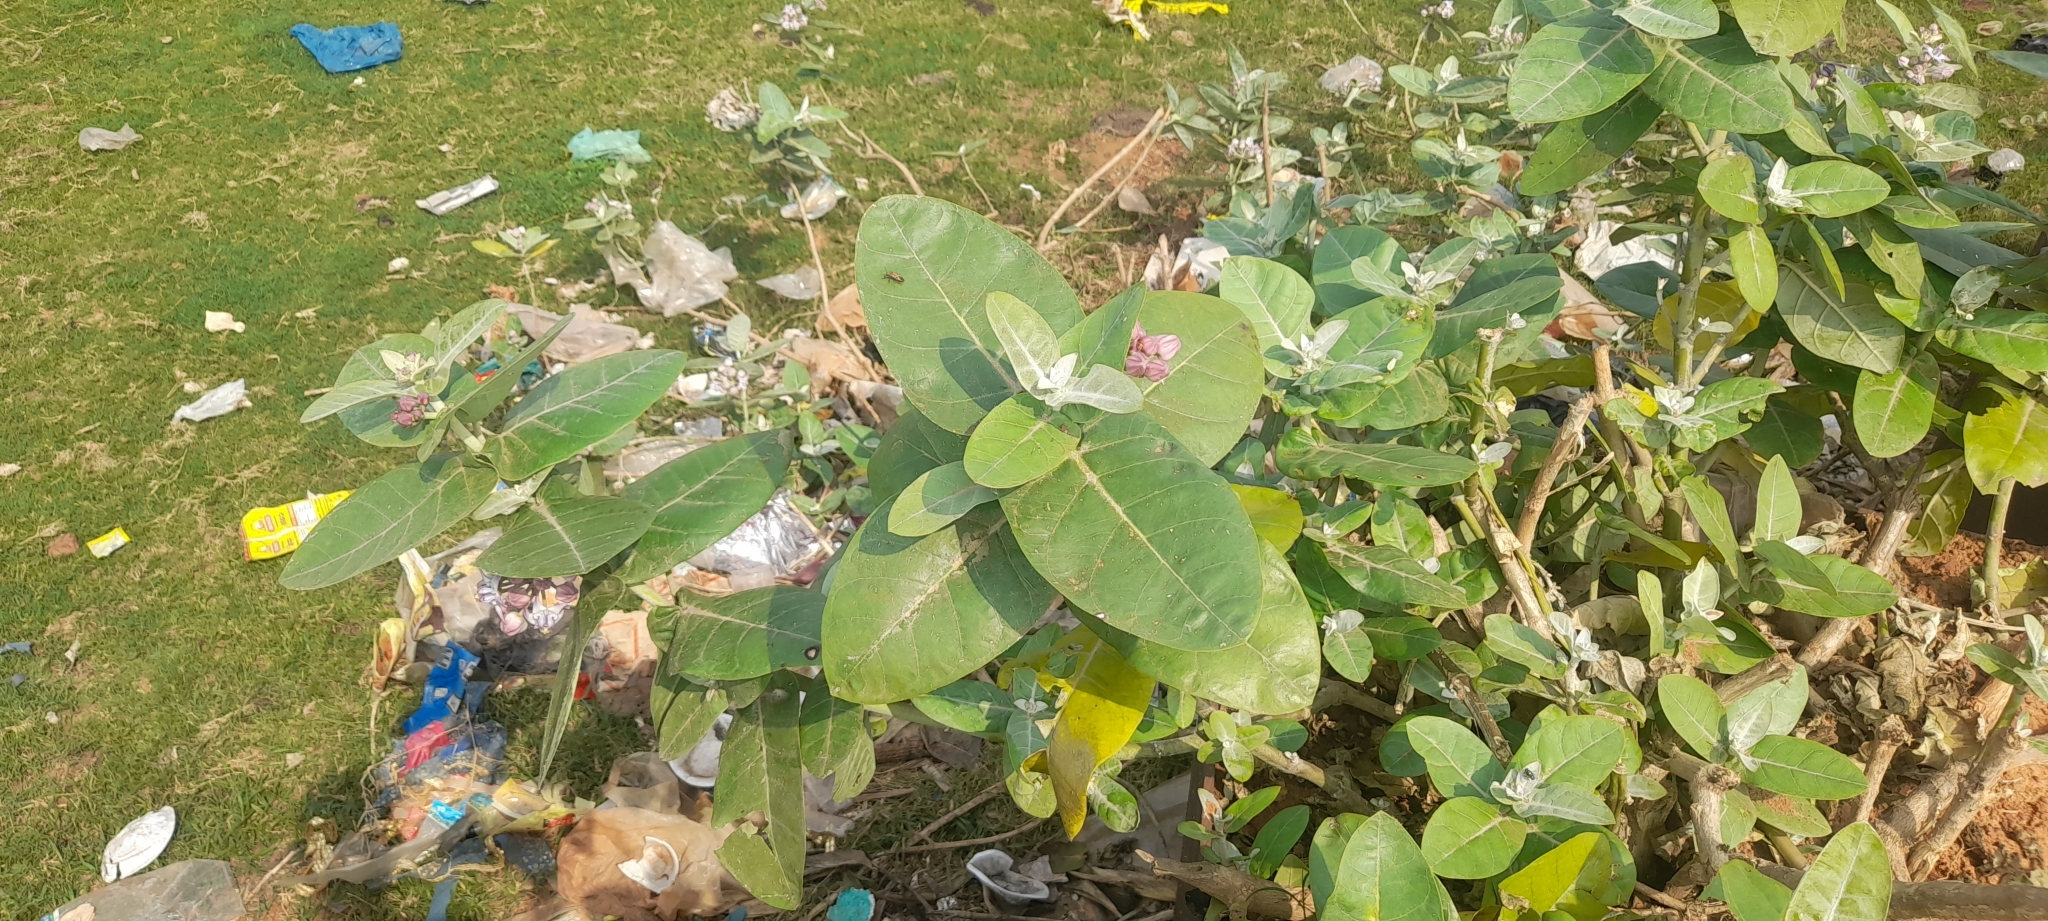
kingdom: Plantae
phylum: Tracheophyta
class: Magnoliopsida
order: Gentianales
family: Apocynaceae
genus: Calotropis
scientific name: Calotropis gigantea
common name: Crown flower
